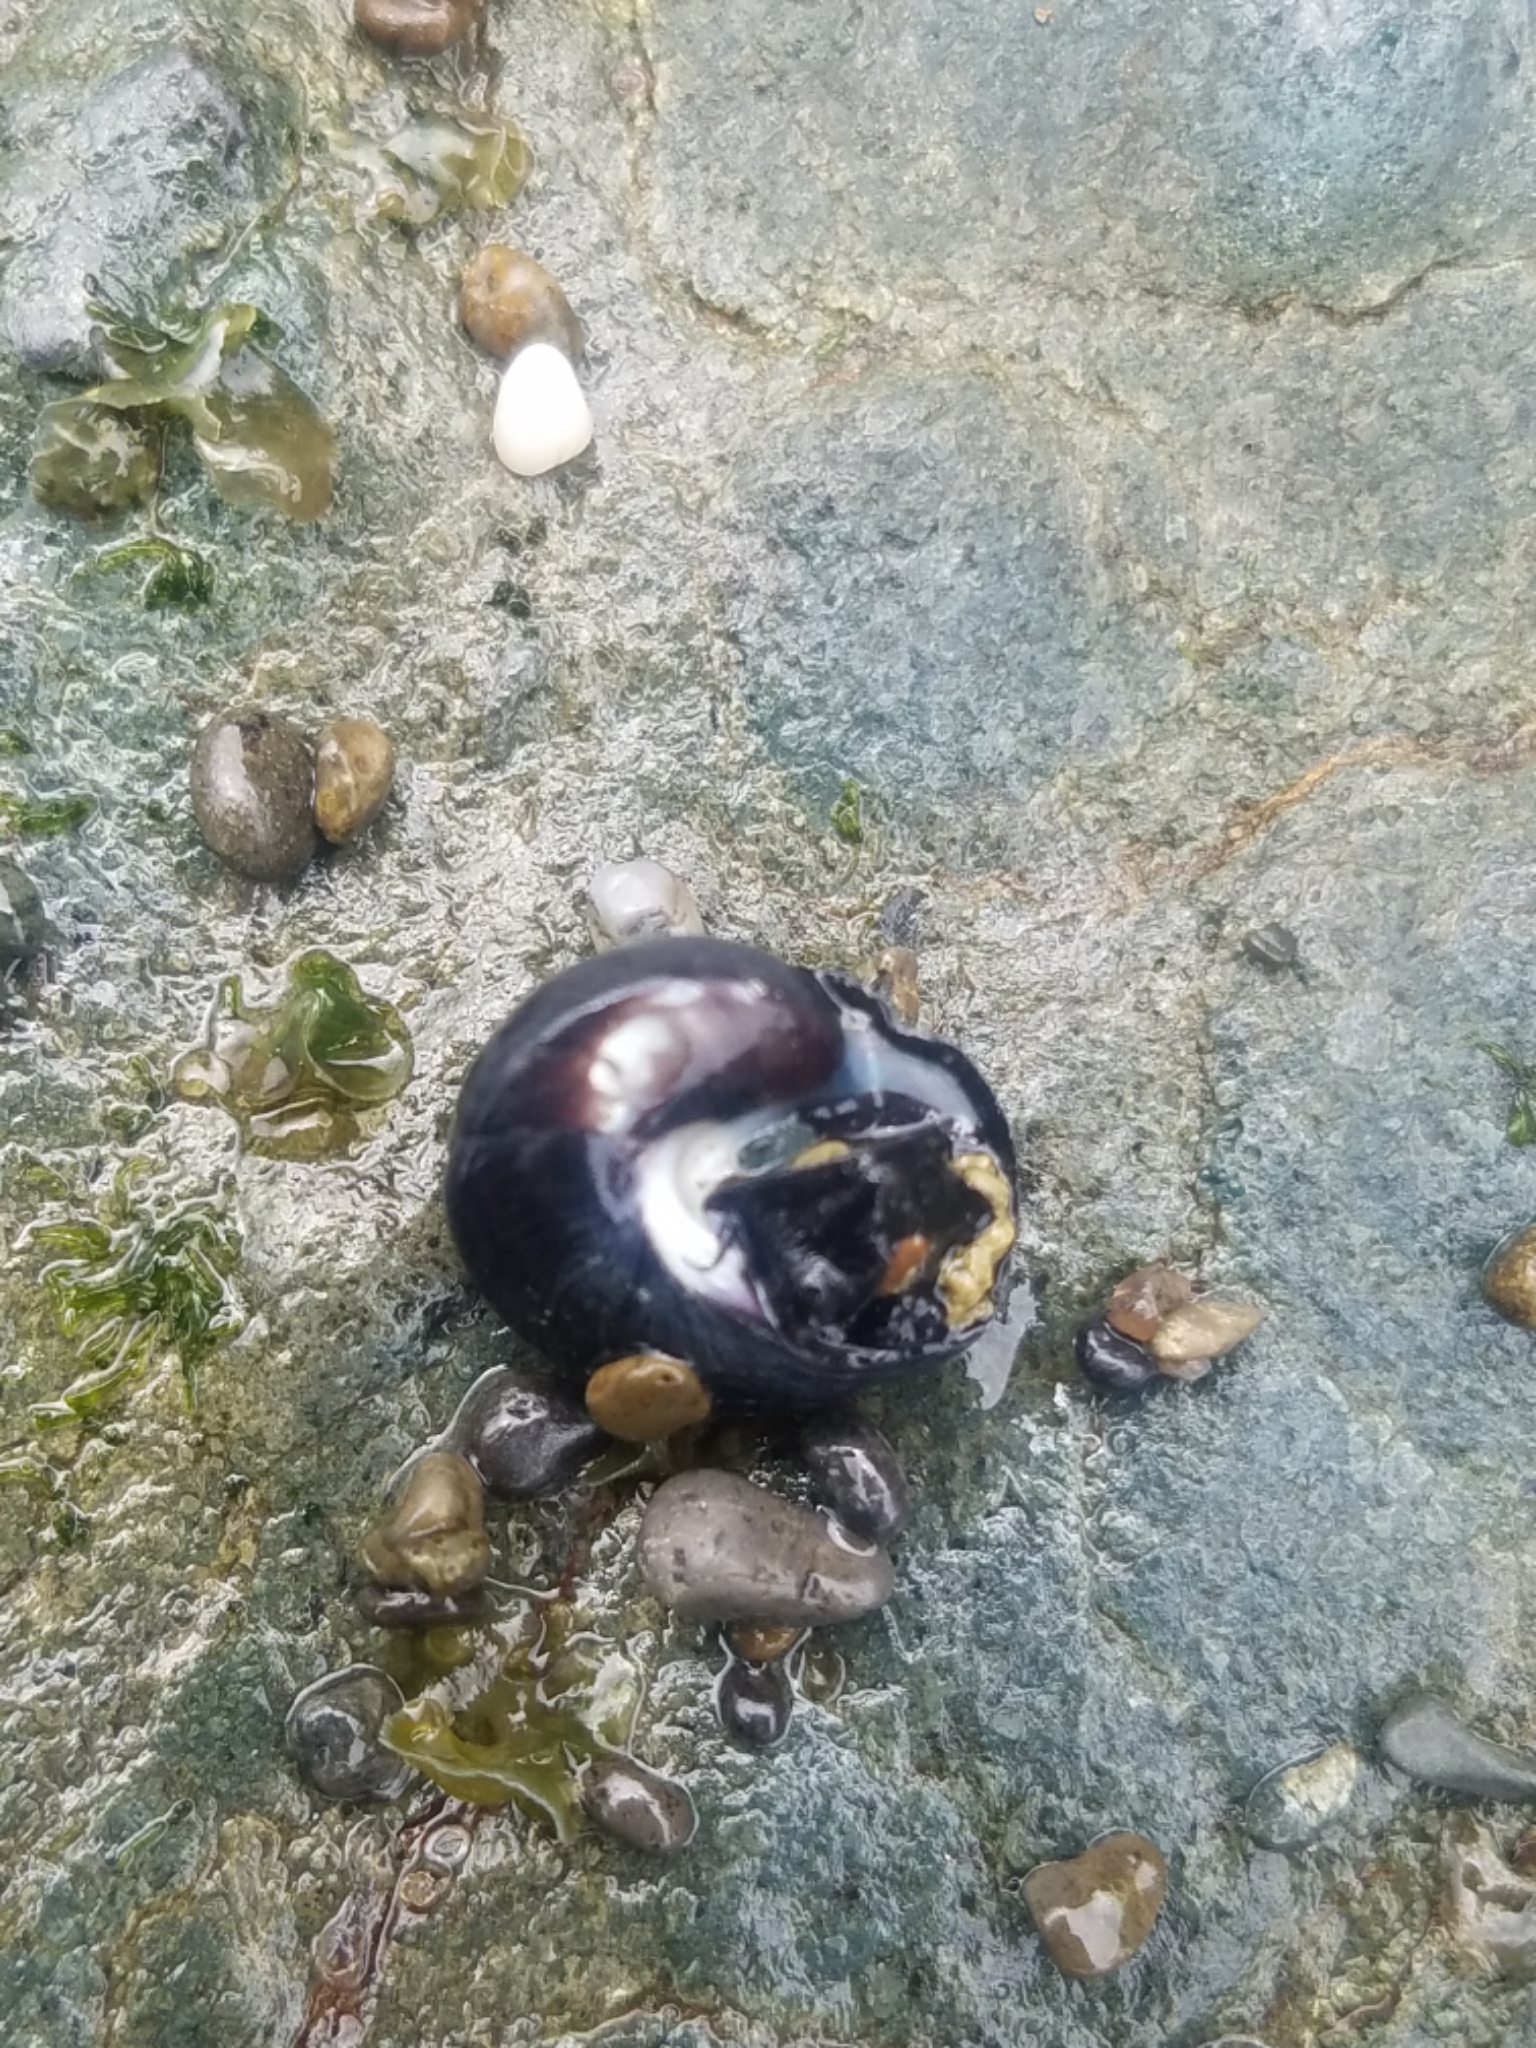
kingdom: Animalia
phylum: Mollusca
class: Gastropoda
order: Trochida
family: Tegulidae
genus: Tegula
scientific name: Tegula funebralis
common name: Black tegula
